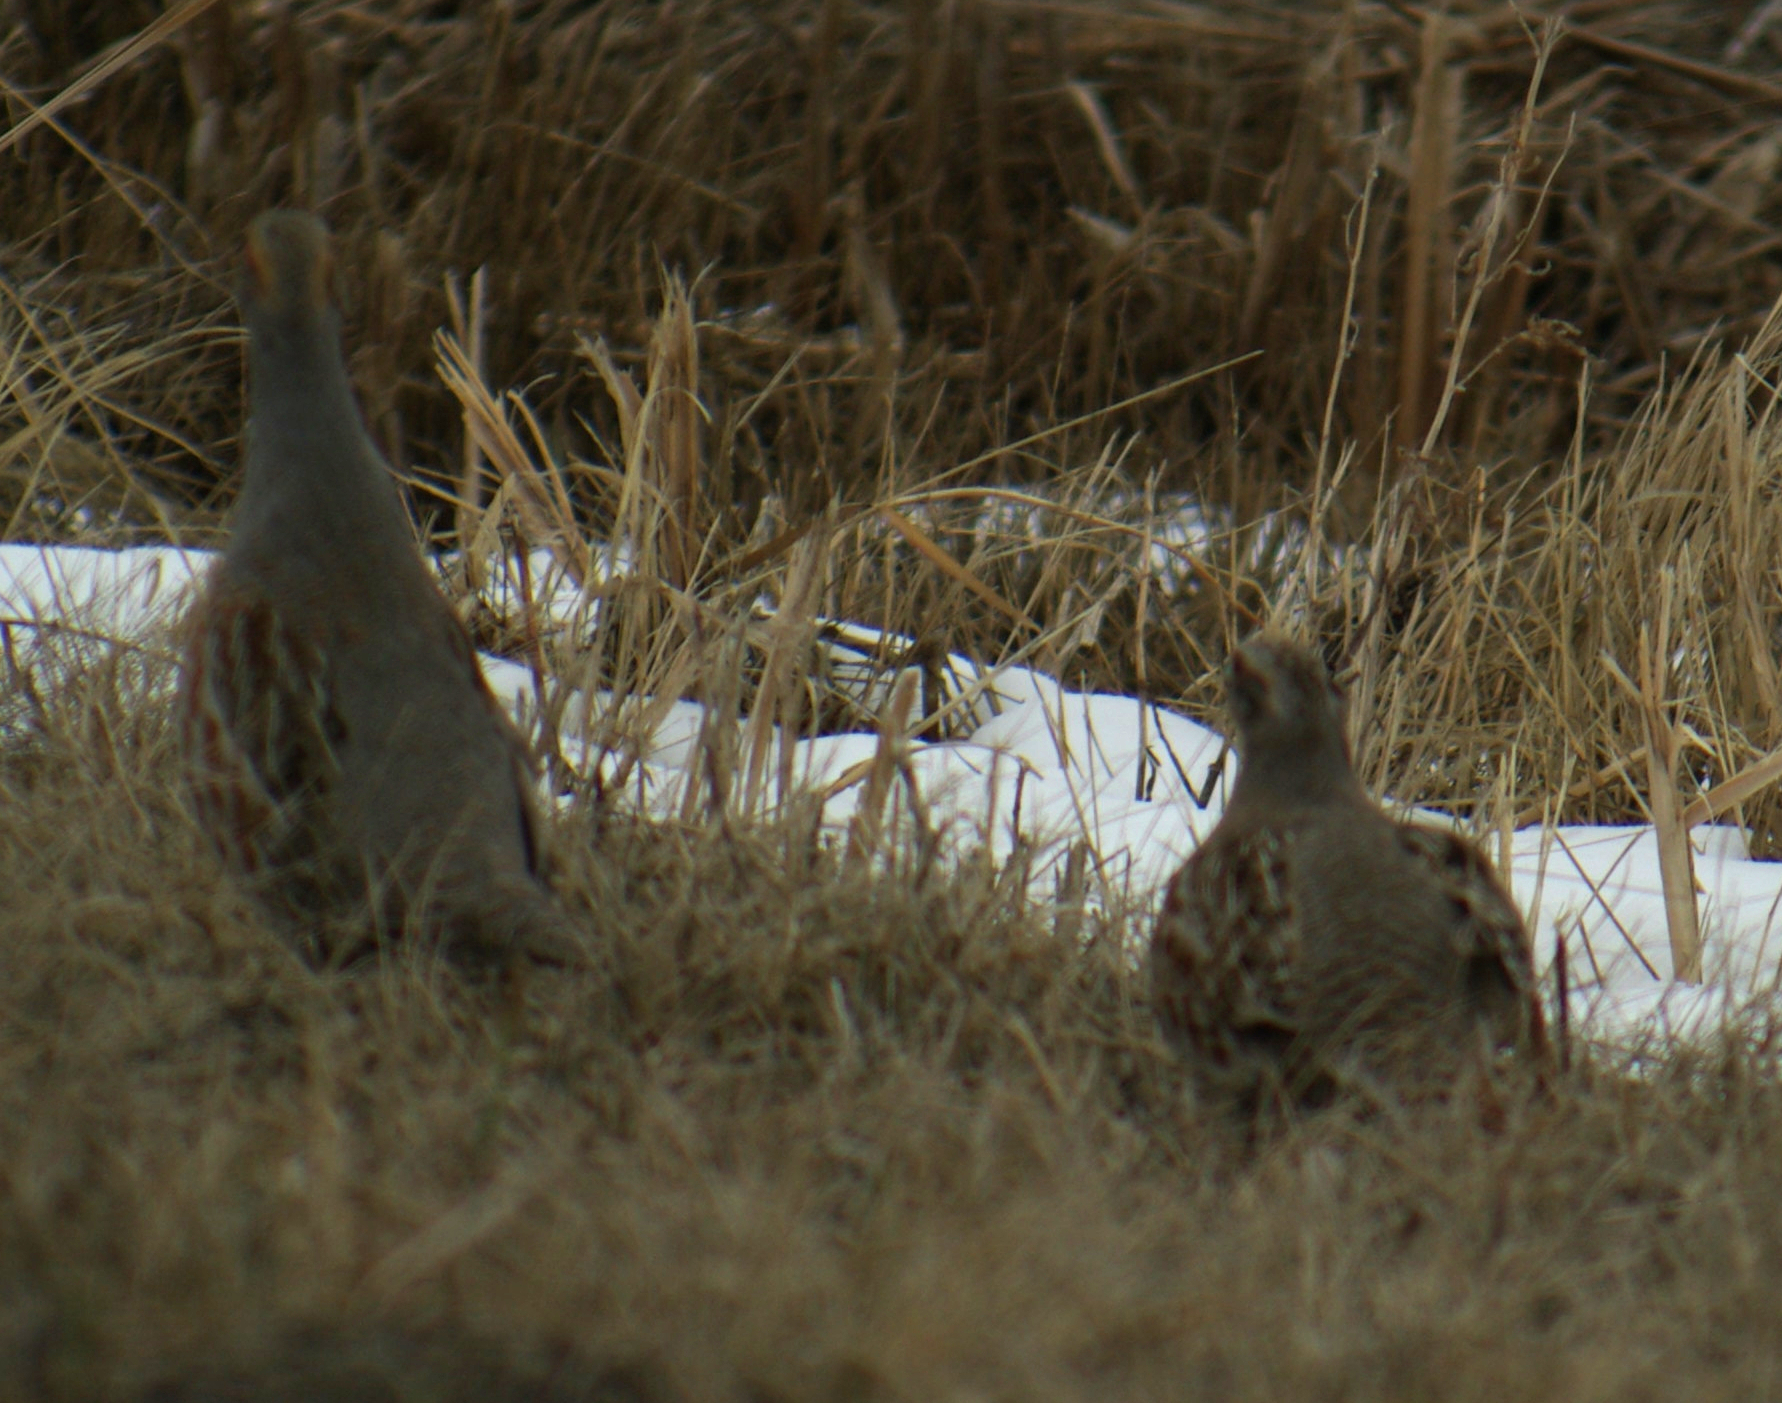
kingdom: Animalia
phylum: Chordata
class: Aves
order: Galliformes
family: Phasianidae
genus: Perdix
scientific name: Perdix perdix
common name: Grey partridge
